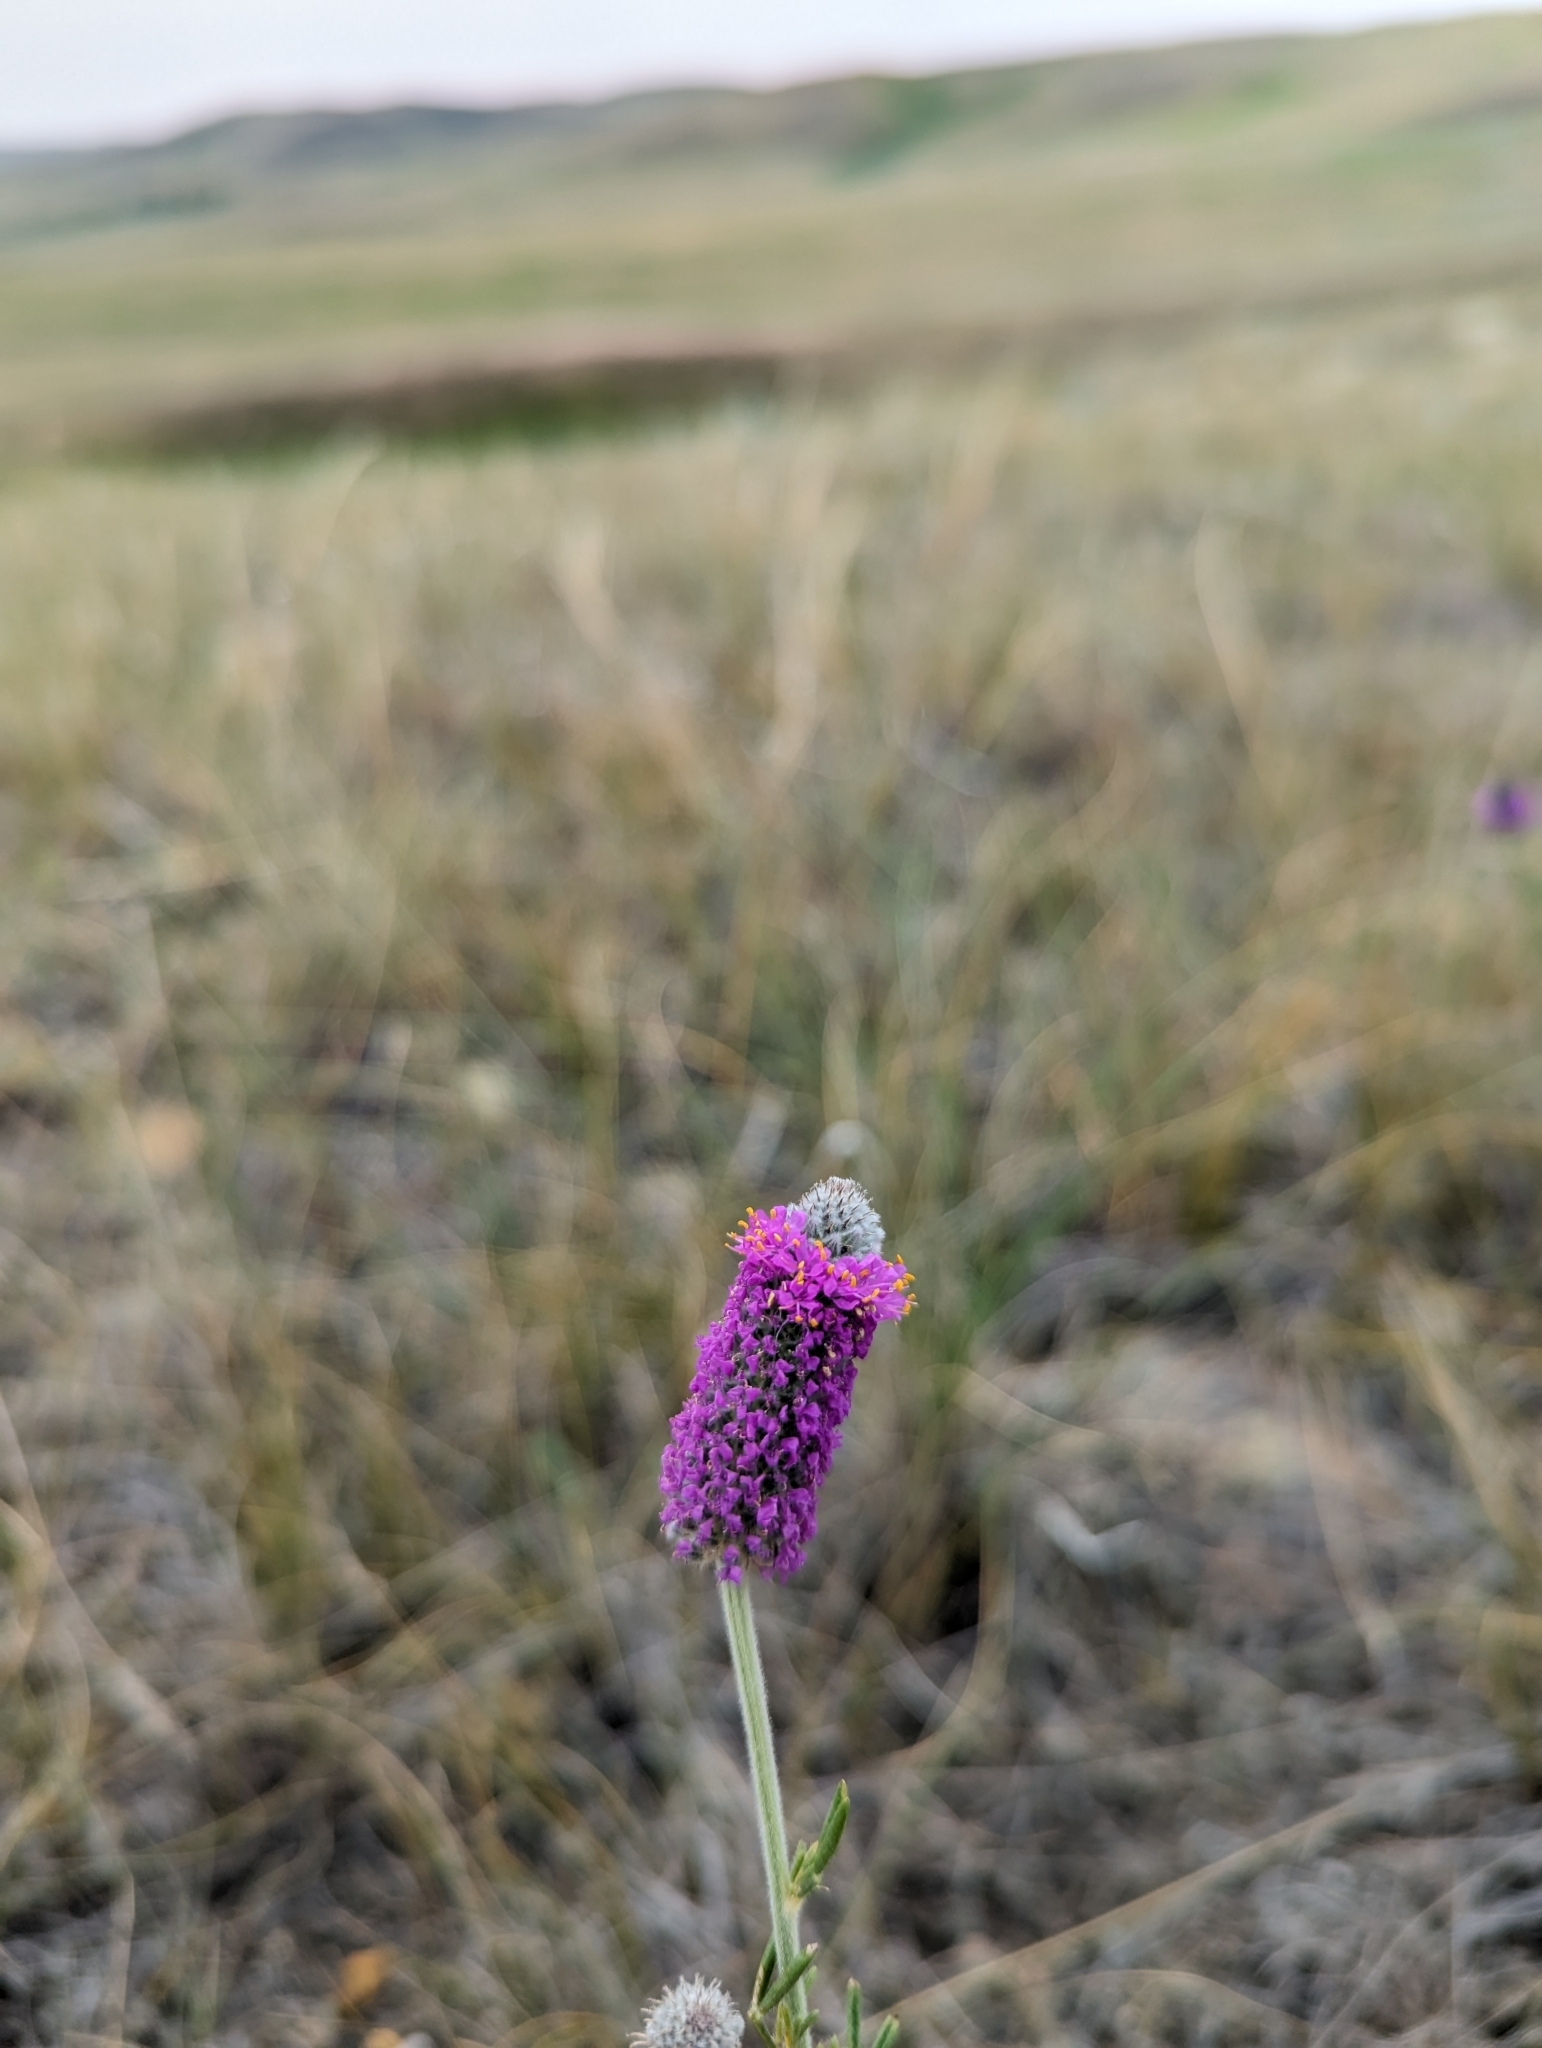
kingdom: Plantae
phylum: Tracheophyta
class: Magnoliopsida
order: Fabales
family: Fabaceae
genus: Dalea
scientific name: Dalea purpurea
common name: Purple prairie-clover
